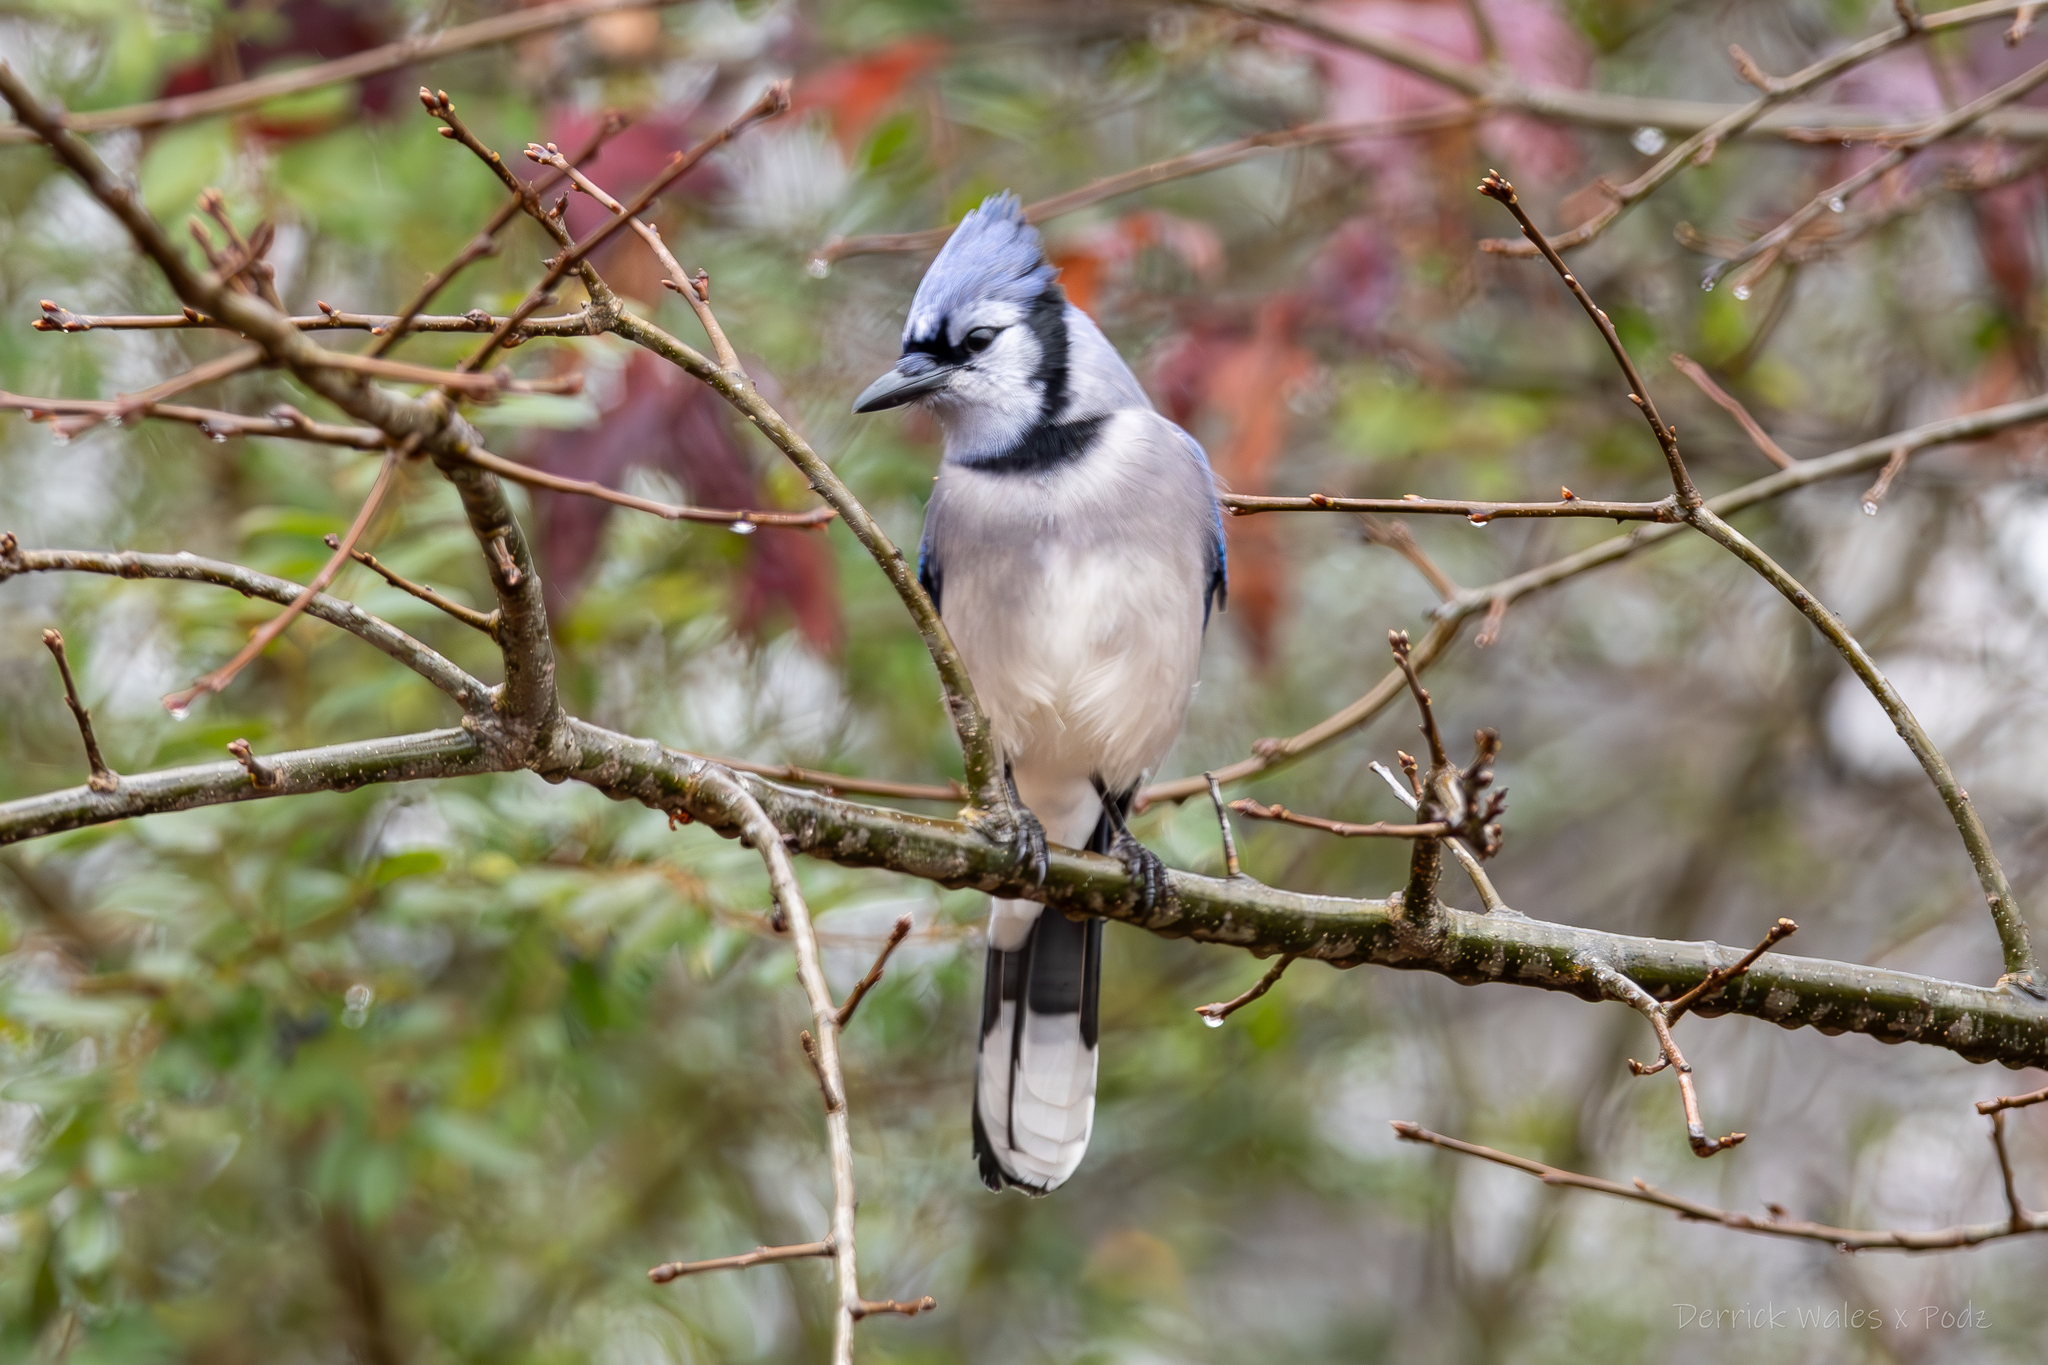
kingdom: Animalia
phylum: Chordata
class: Aves
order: Passeriformes
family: Corvidae
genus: Cyanocitta
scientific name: Cyanocitta cristata
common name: Blue jay
